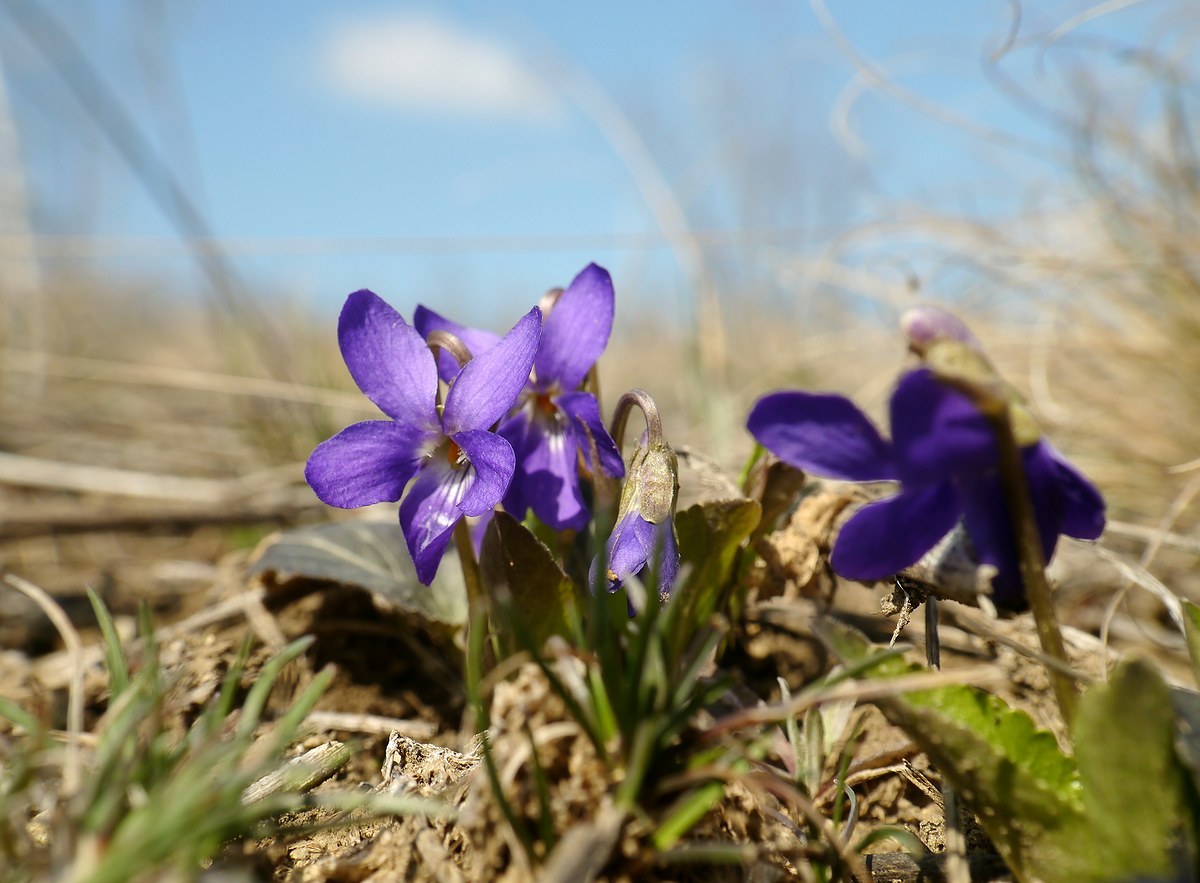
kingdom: Plantae
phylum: Tracheophyta
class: Magnoliopsida
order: Malpighiales
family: Violaceae
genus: Viola
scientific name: Viola ambigua
